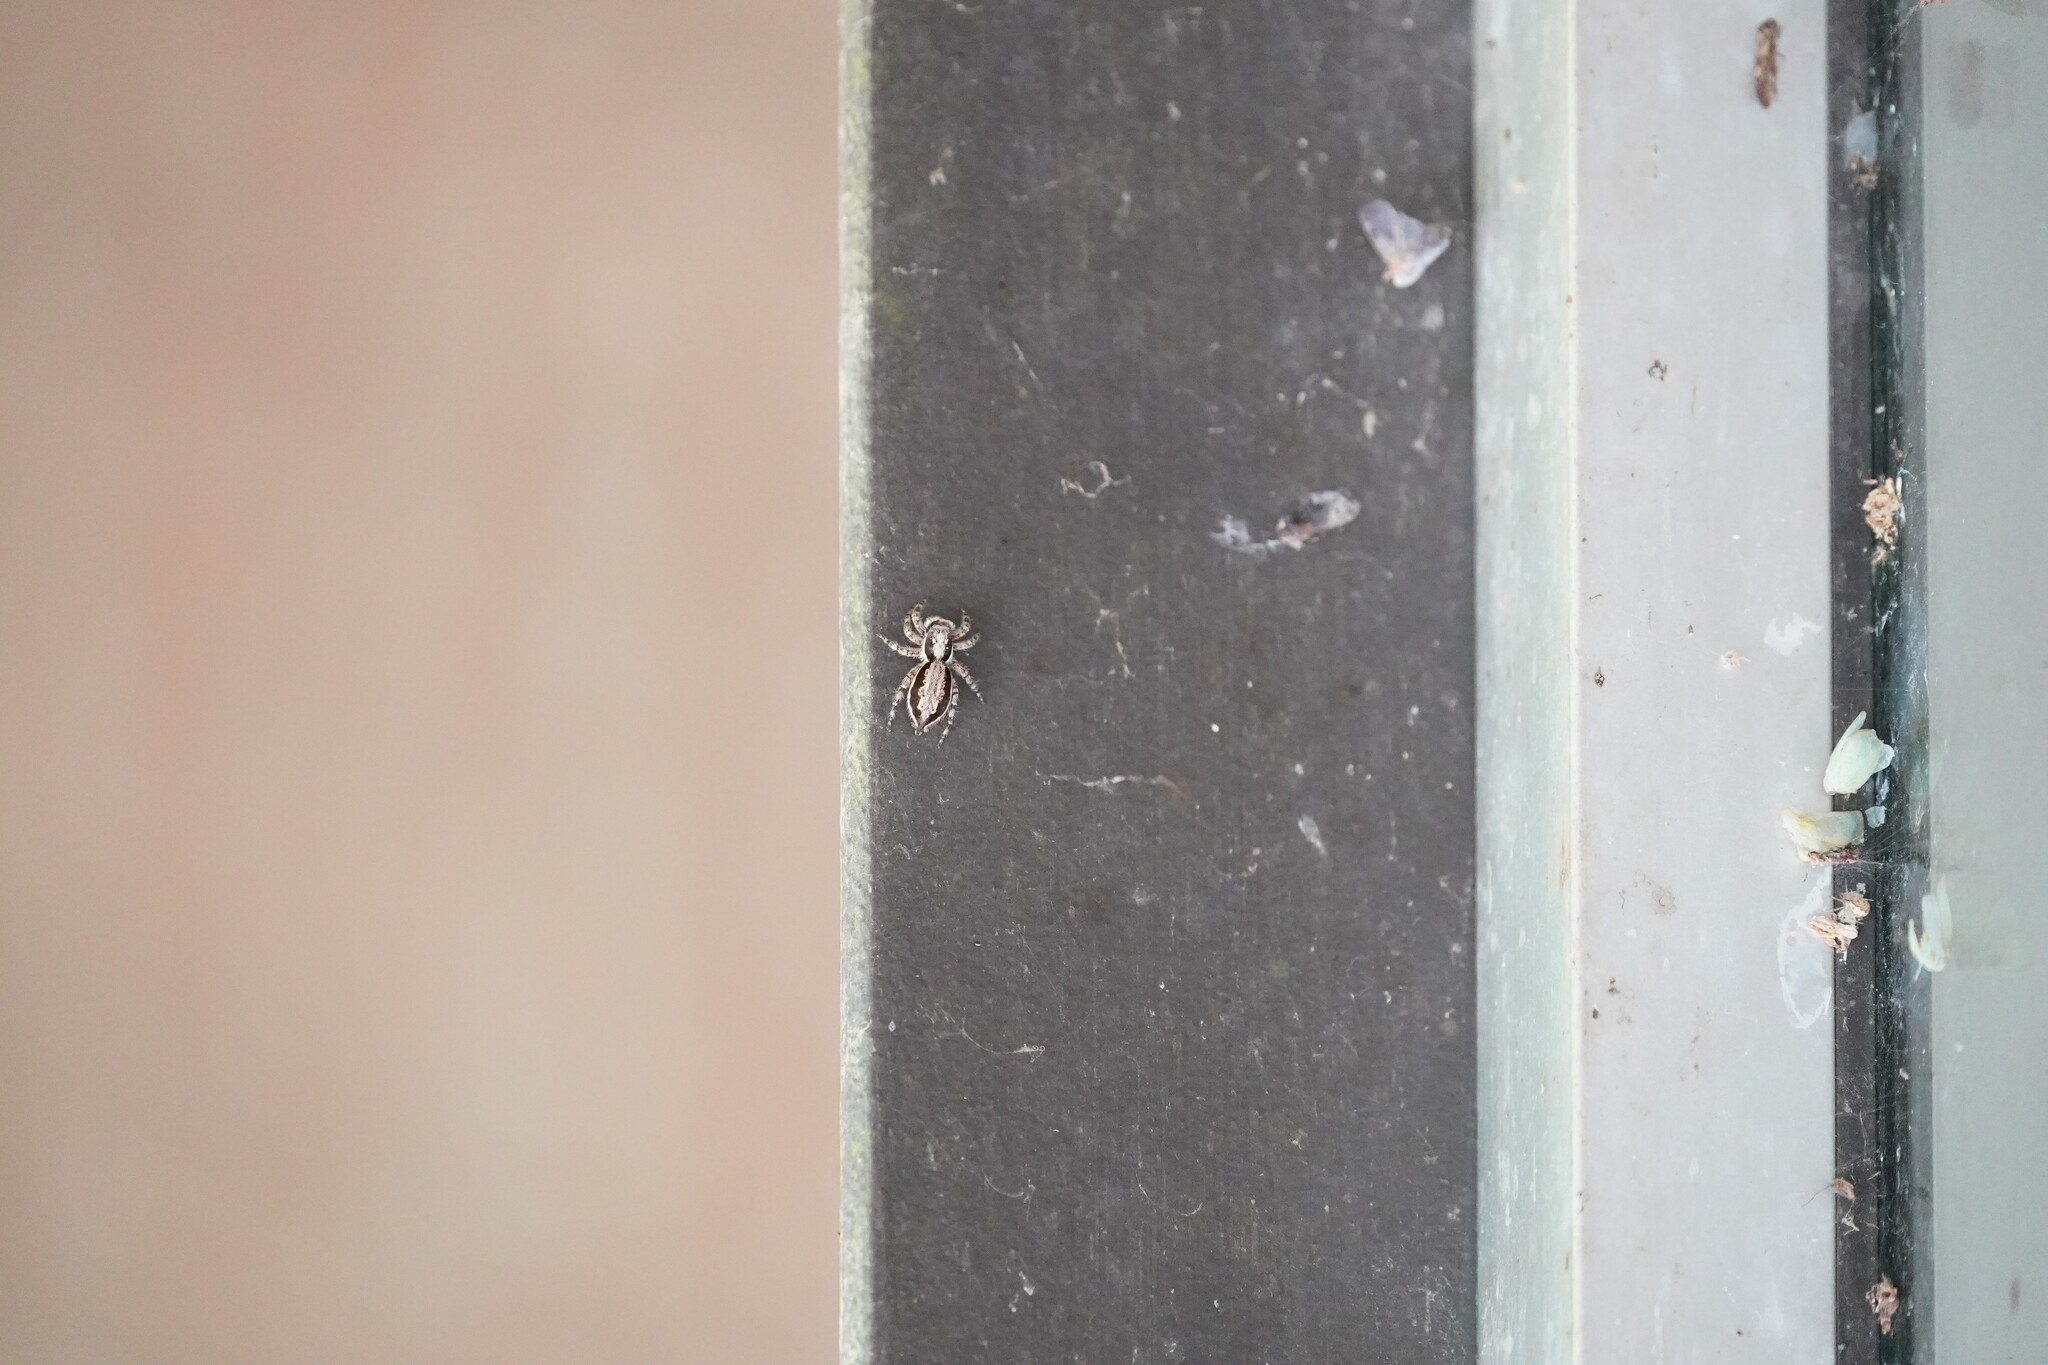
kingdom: Animalia
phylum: Arthropoda
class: Arachnida
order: Araneae
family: Salticidae
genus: Menemerus
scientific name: Menemerus bivittatus
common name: Gray wall jumper
